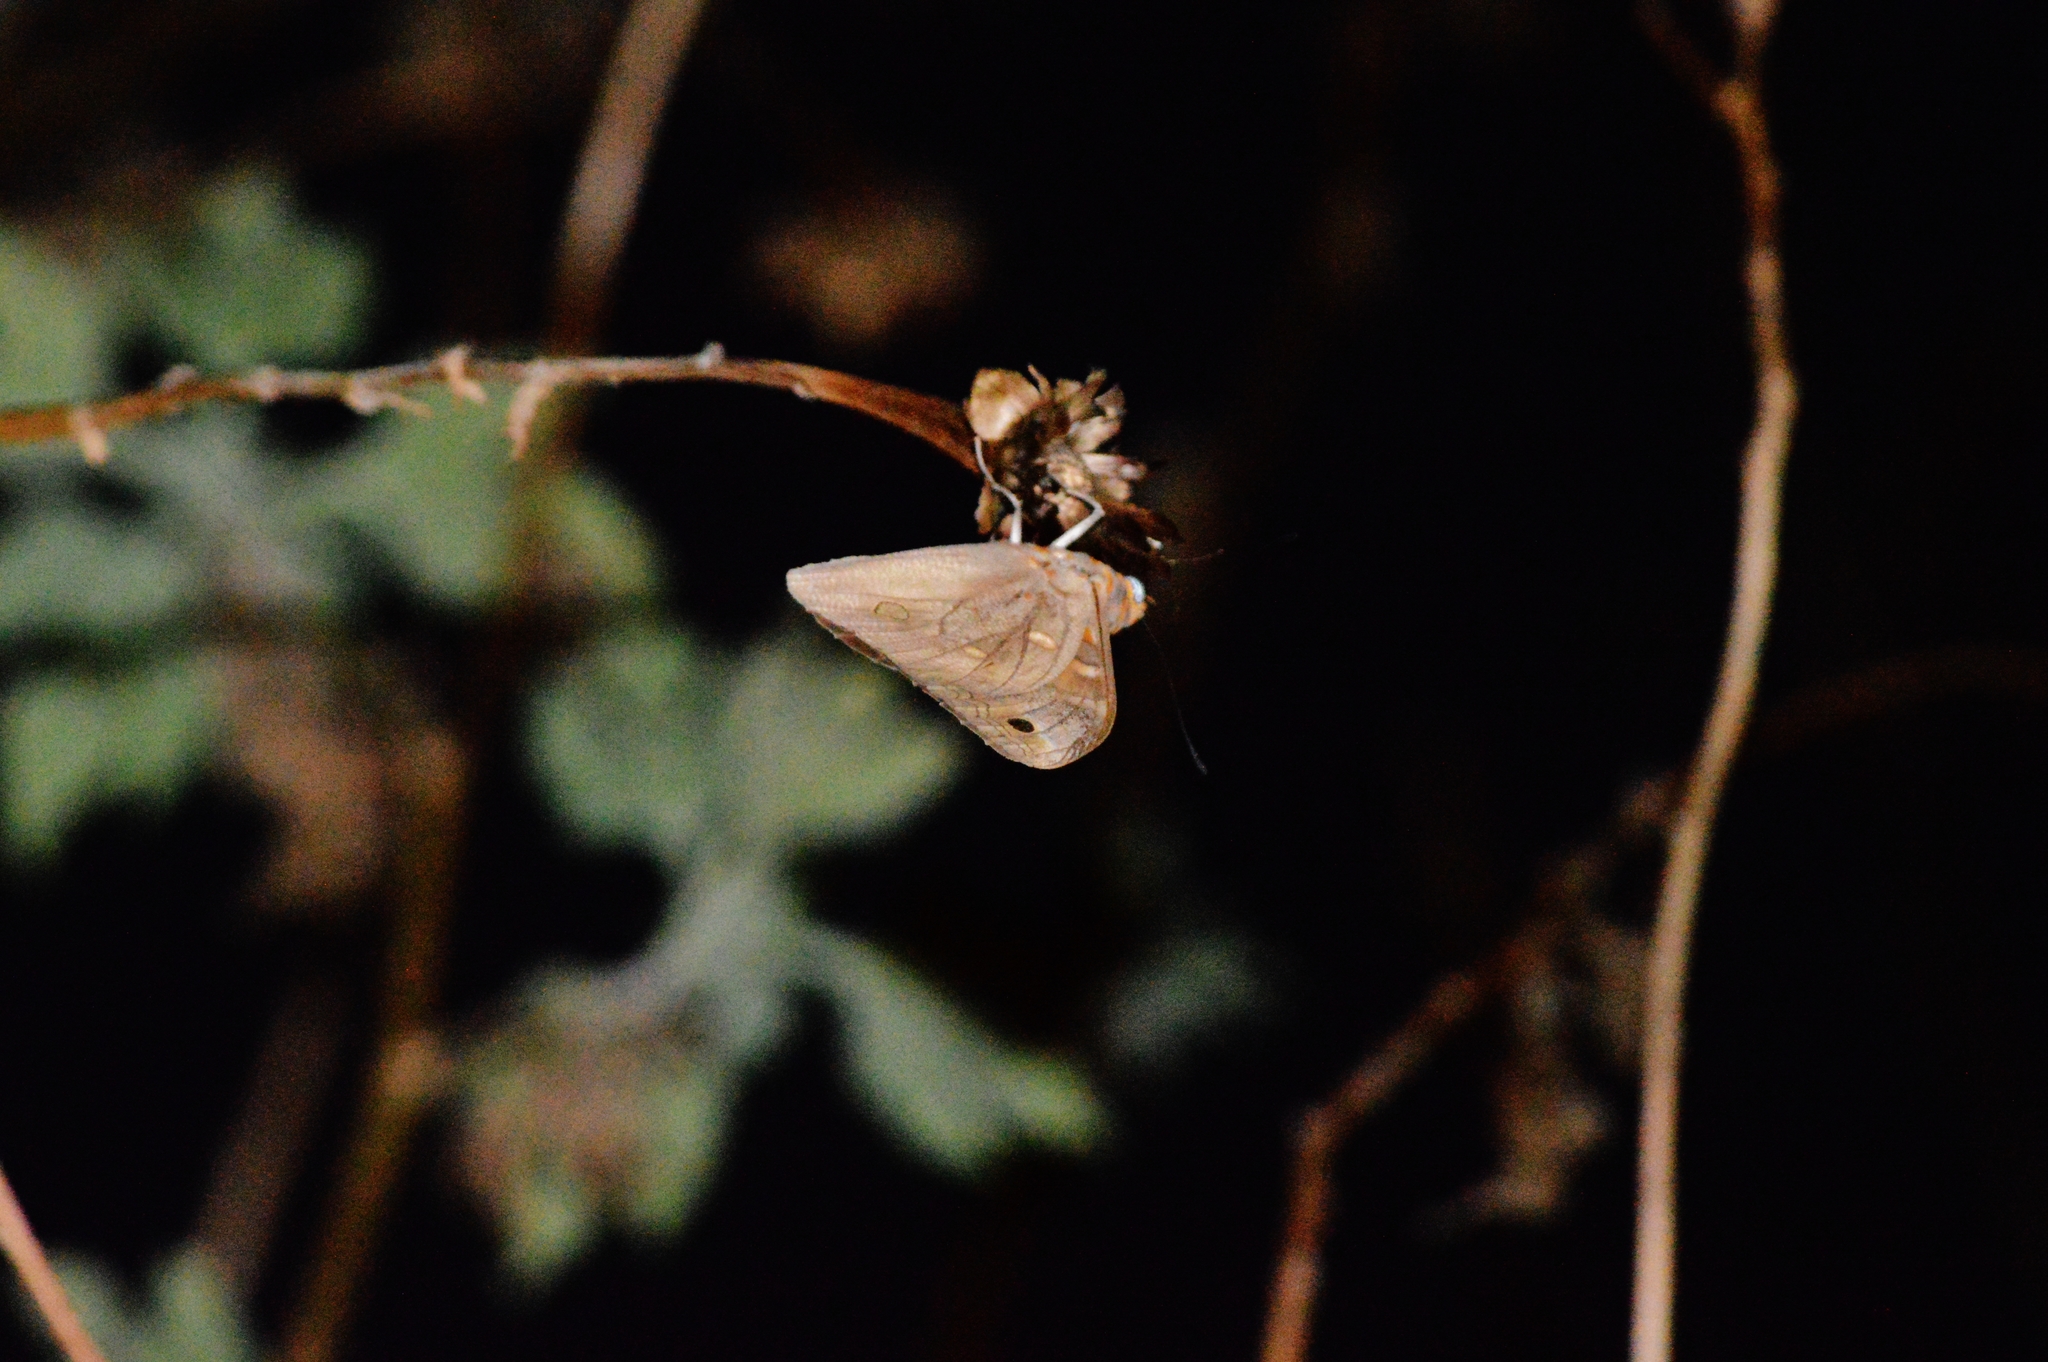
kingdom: Animalia
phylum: Arthropoda
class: Insecta
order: Lepidoptera
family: Nymphalidae
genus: Brassolis
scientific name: Brassolis sophorae
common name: Coconut caterpillar
